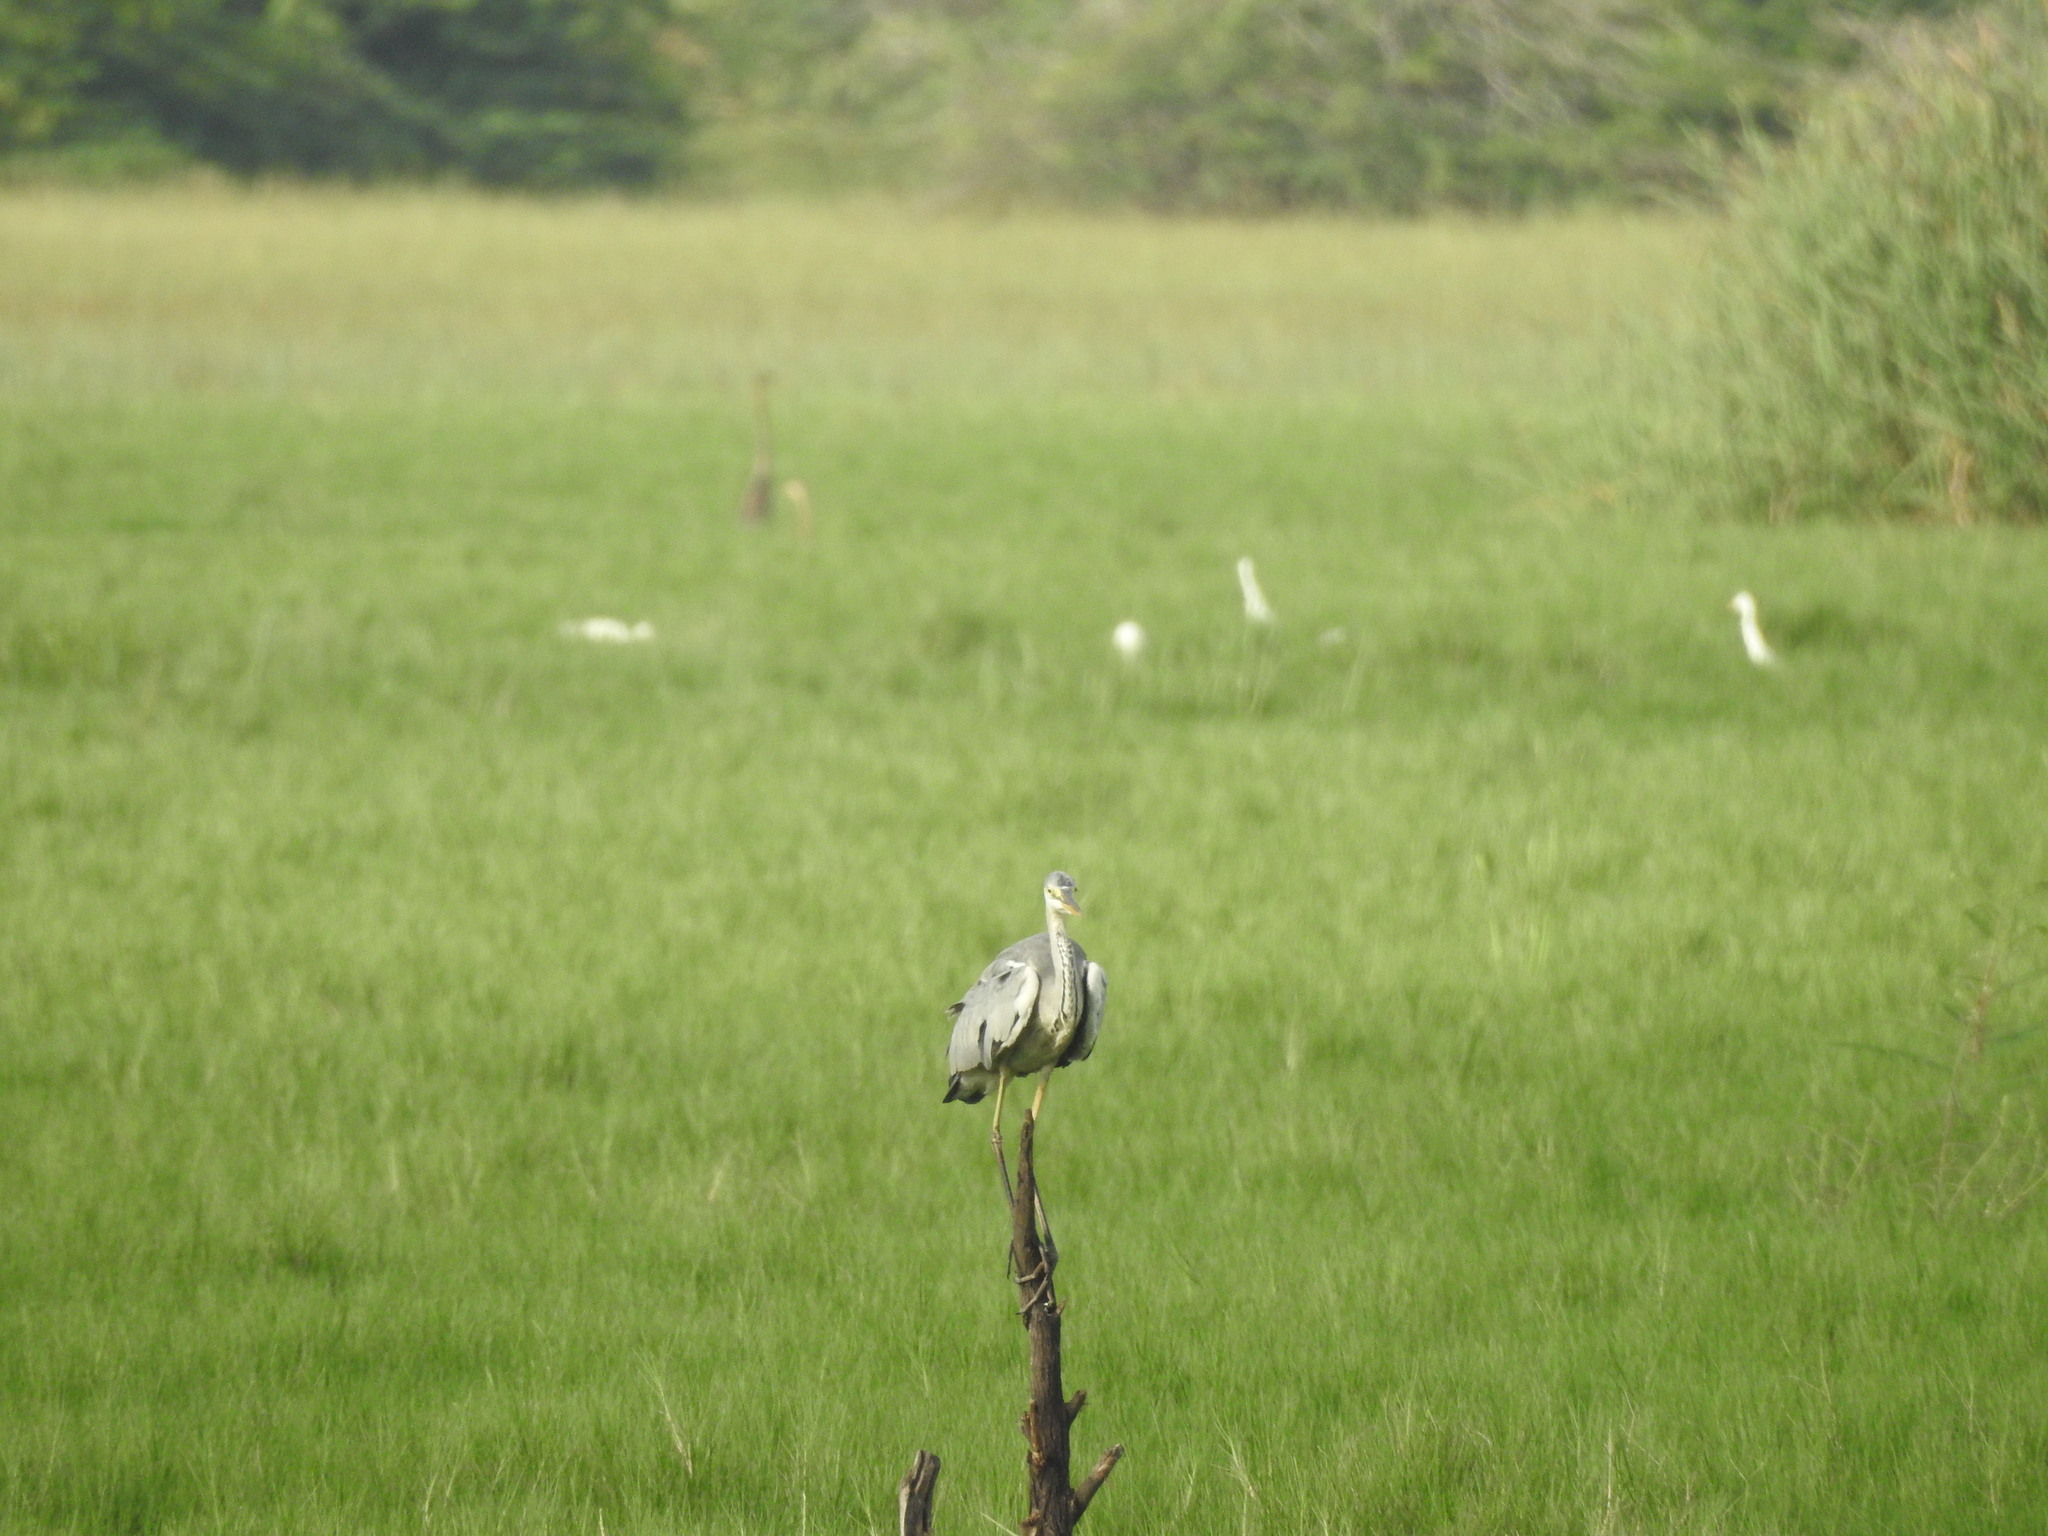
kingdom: Animalia
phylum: Chordata
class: Aves
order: Pelecaniformes
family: Ardeidae
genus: Ardea
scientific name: Ardea cinerea
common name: Grey heron
